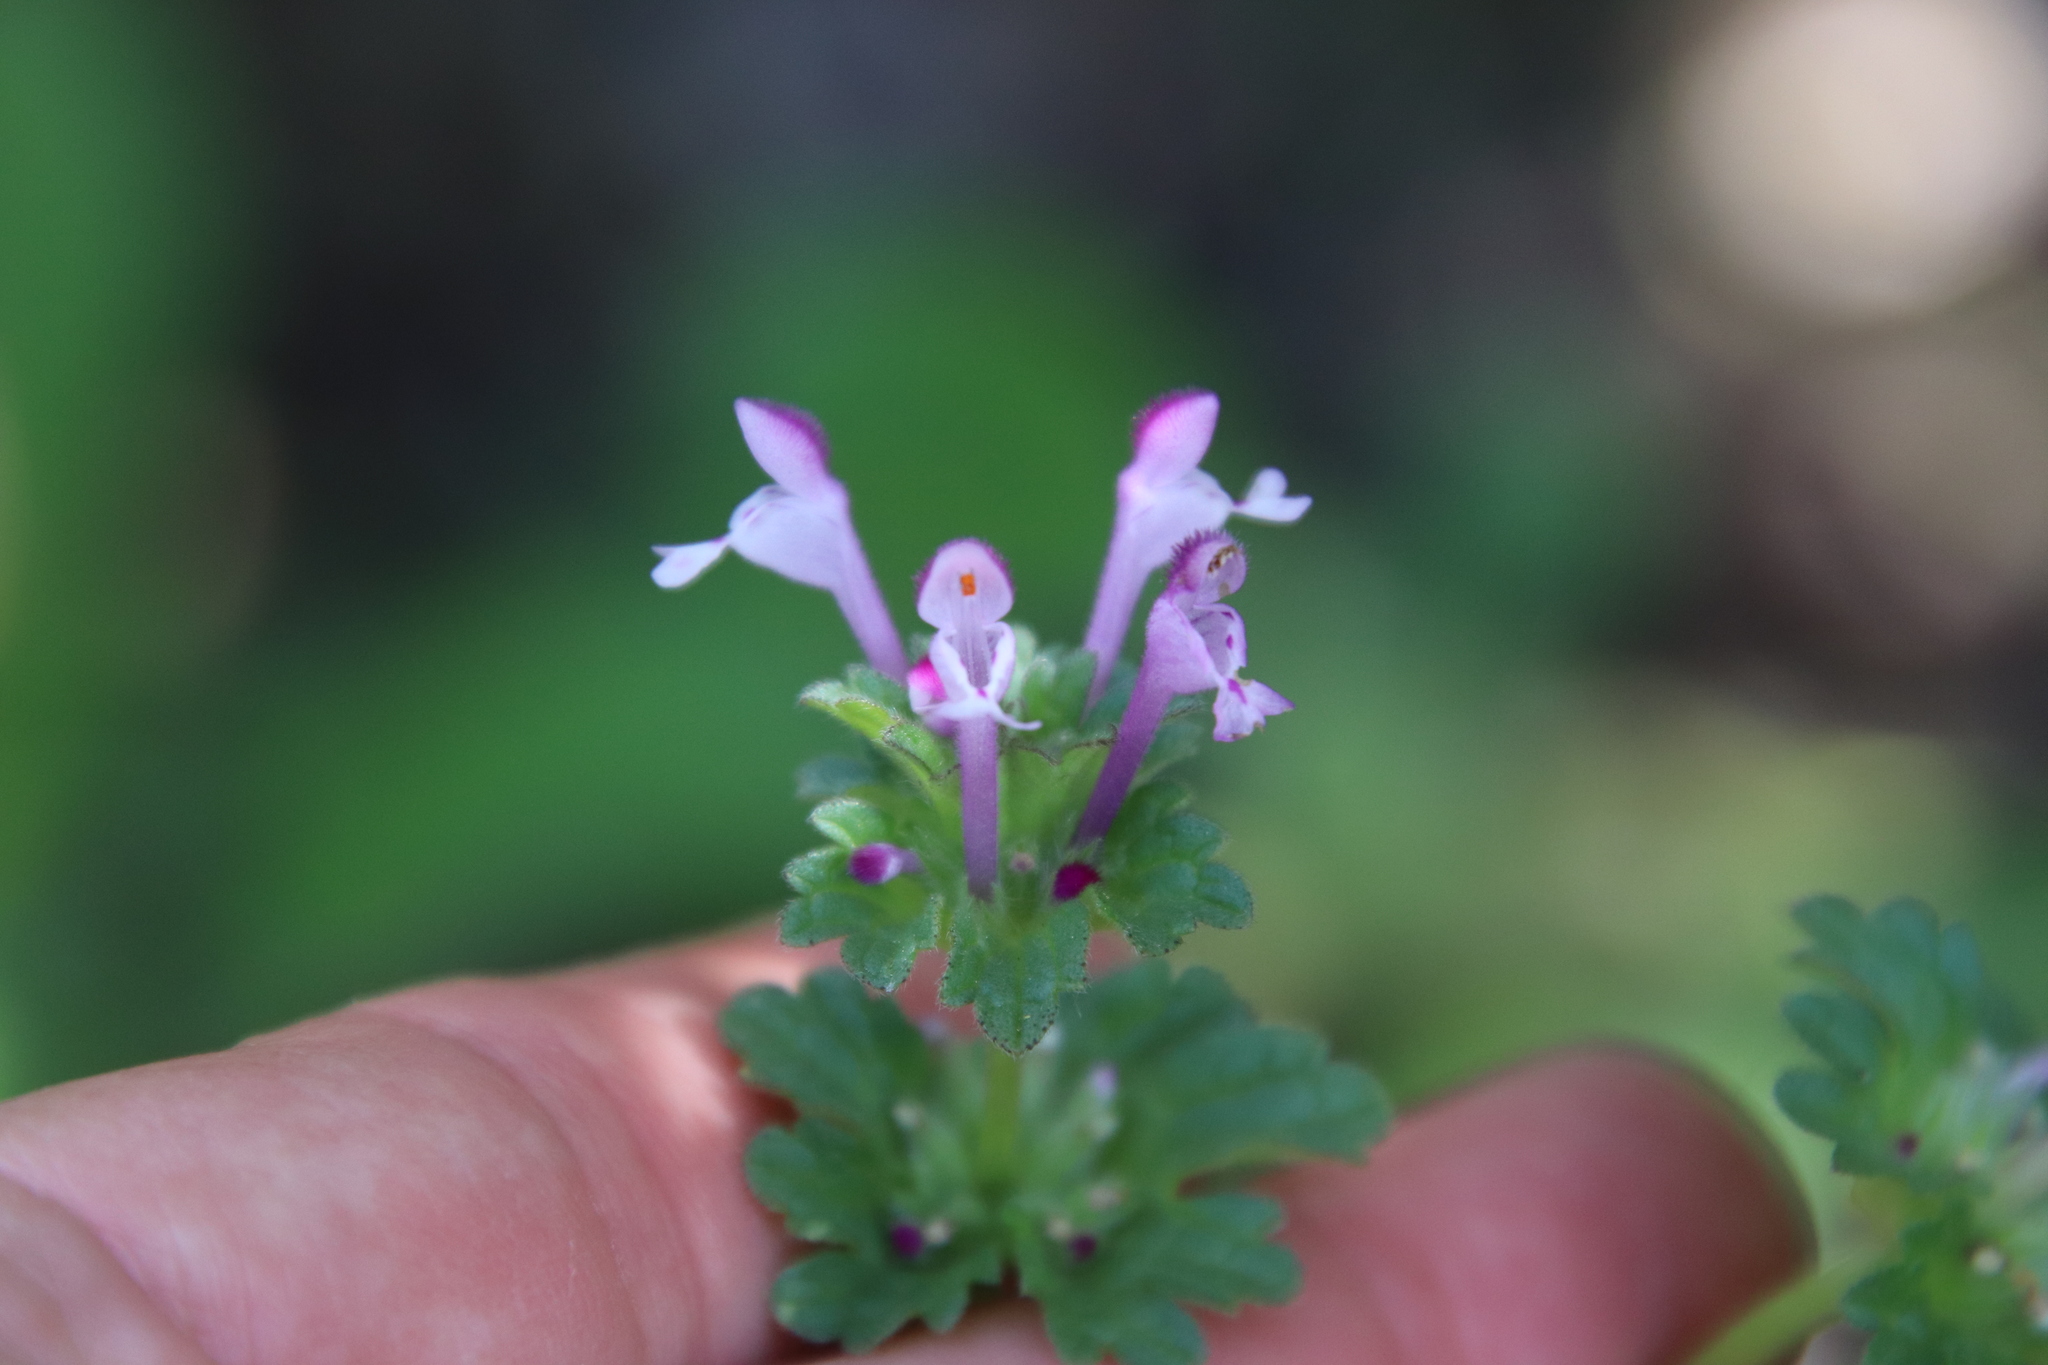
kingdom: Plantae
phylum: Tracheophyta
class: Magnoliopsida
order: Lamiales
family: Lamiaceae
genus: Lamium
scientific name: Lamium amplexicaule
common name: Henbit dead-nettle
